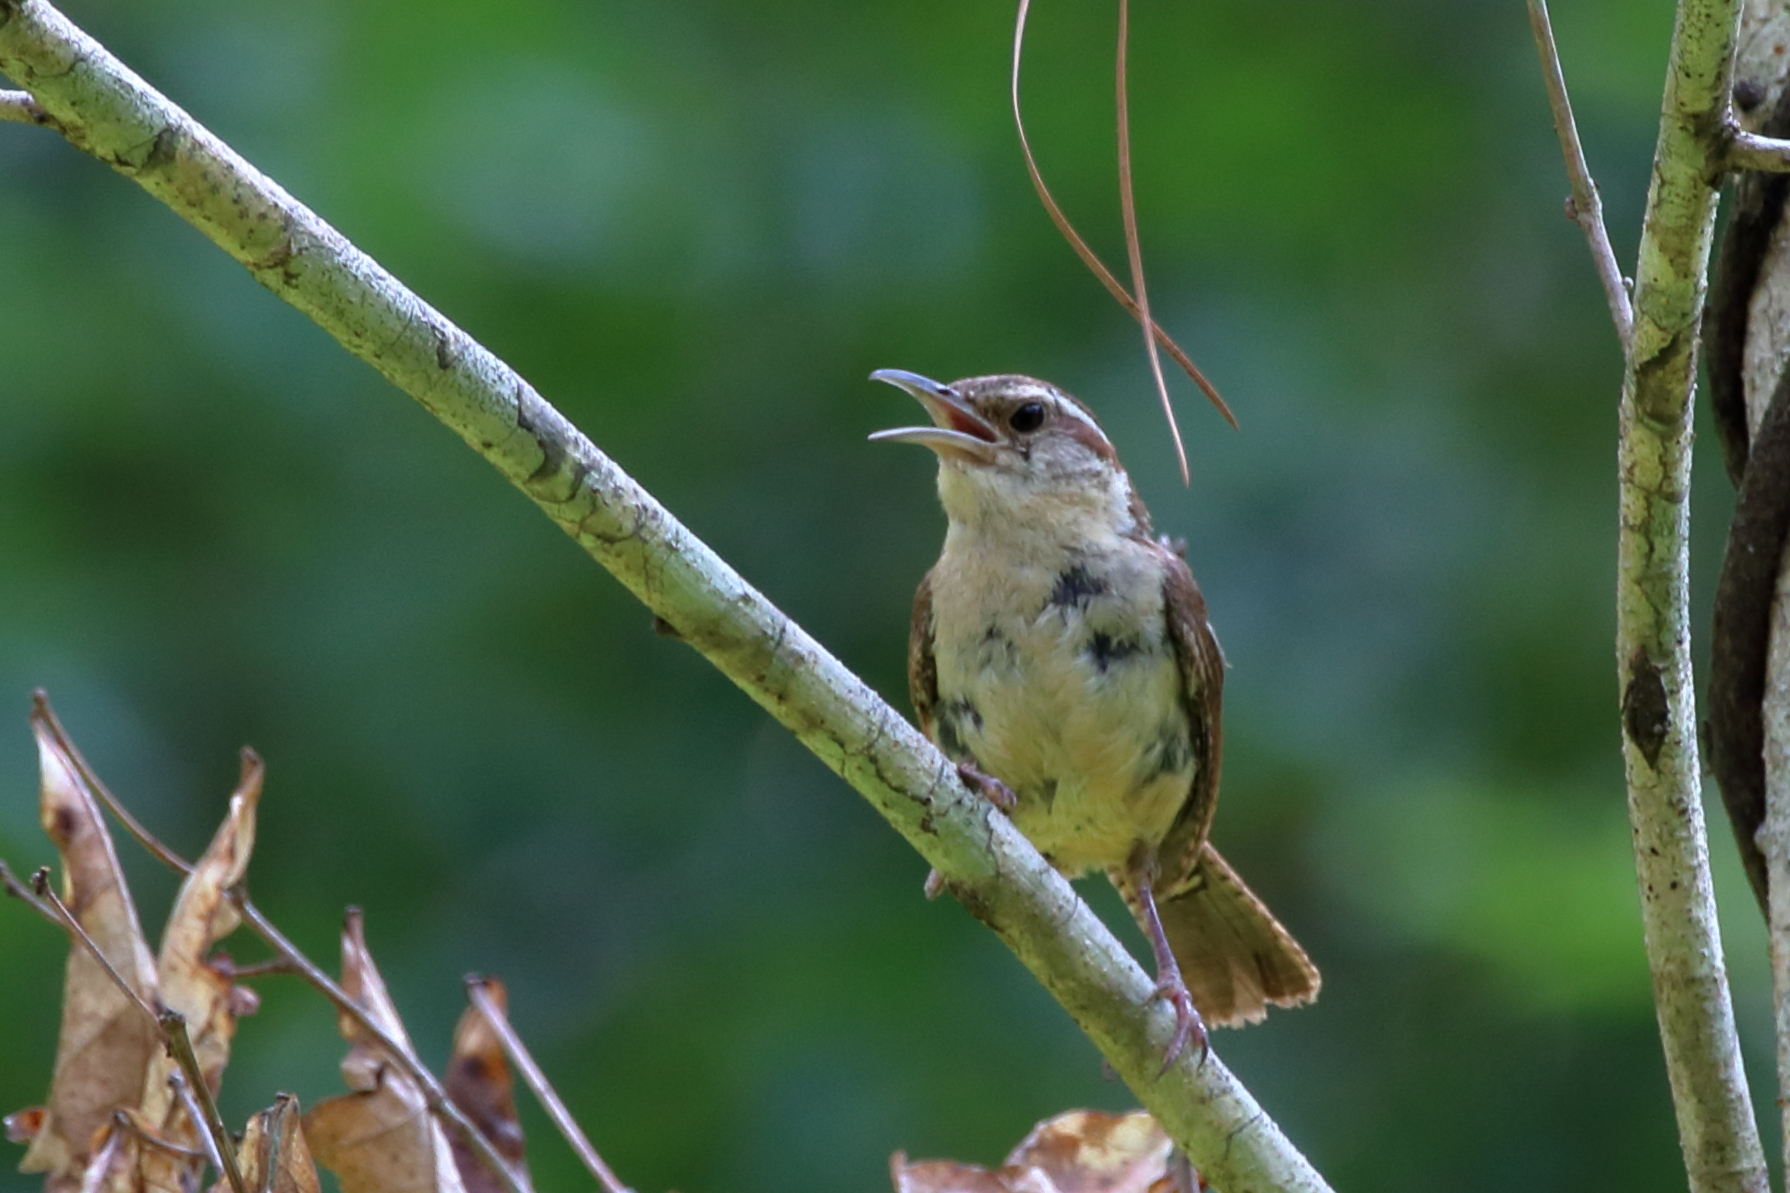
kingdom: Animalia
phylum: Chordata
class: Aves
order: Passeriformes
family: Troglodytidae
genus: Thryothorus
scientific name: Thryothorus ludovicianus
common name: Carolina wren
